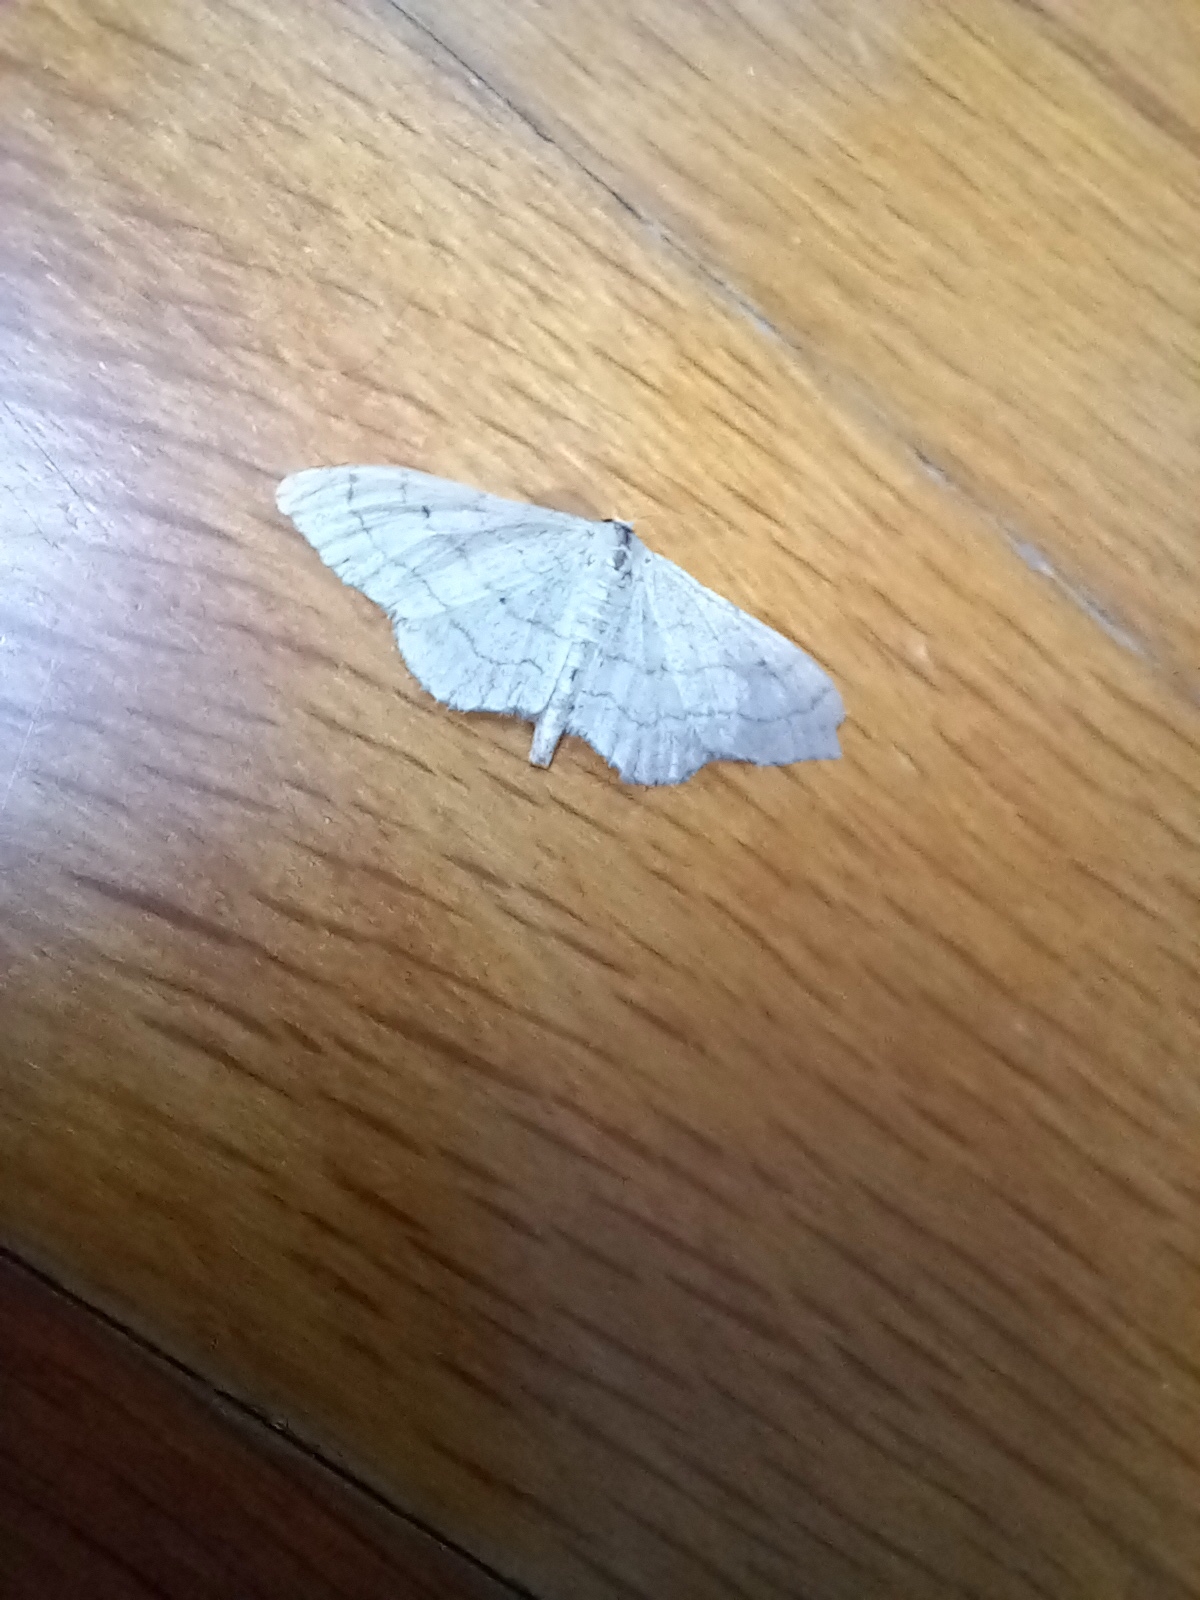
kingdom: Animalia
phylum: Arthropoda
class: Insecta
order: Lepidoptera
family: Geometridae
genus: Idaea
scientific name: Idaea aversata
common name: Riband wave
